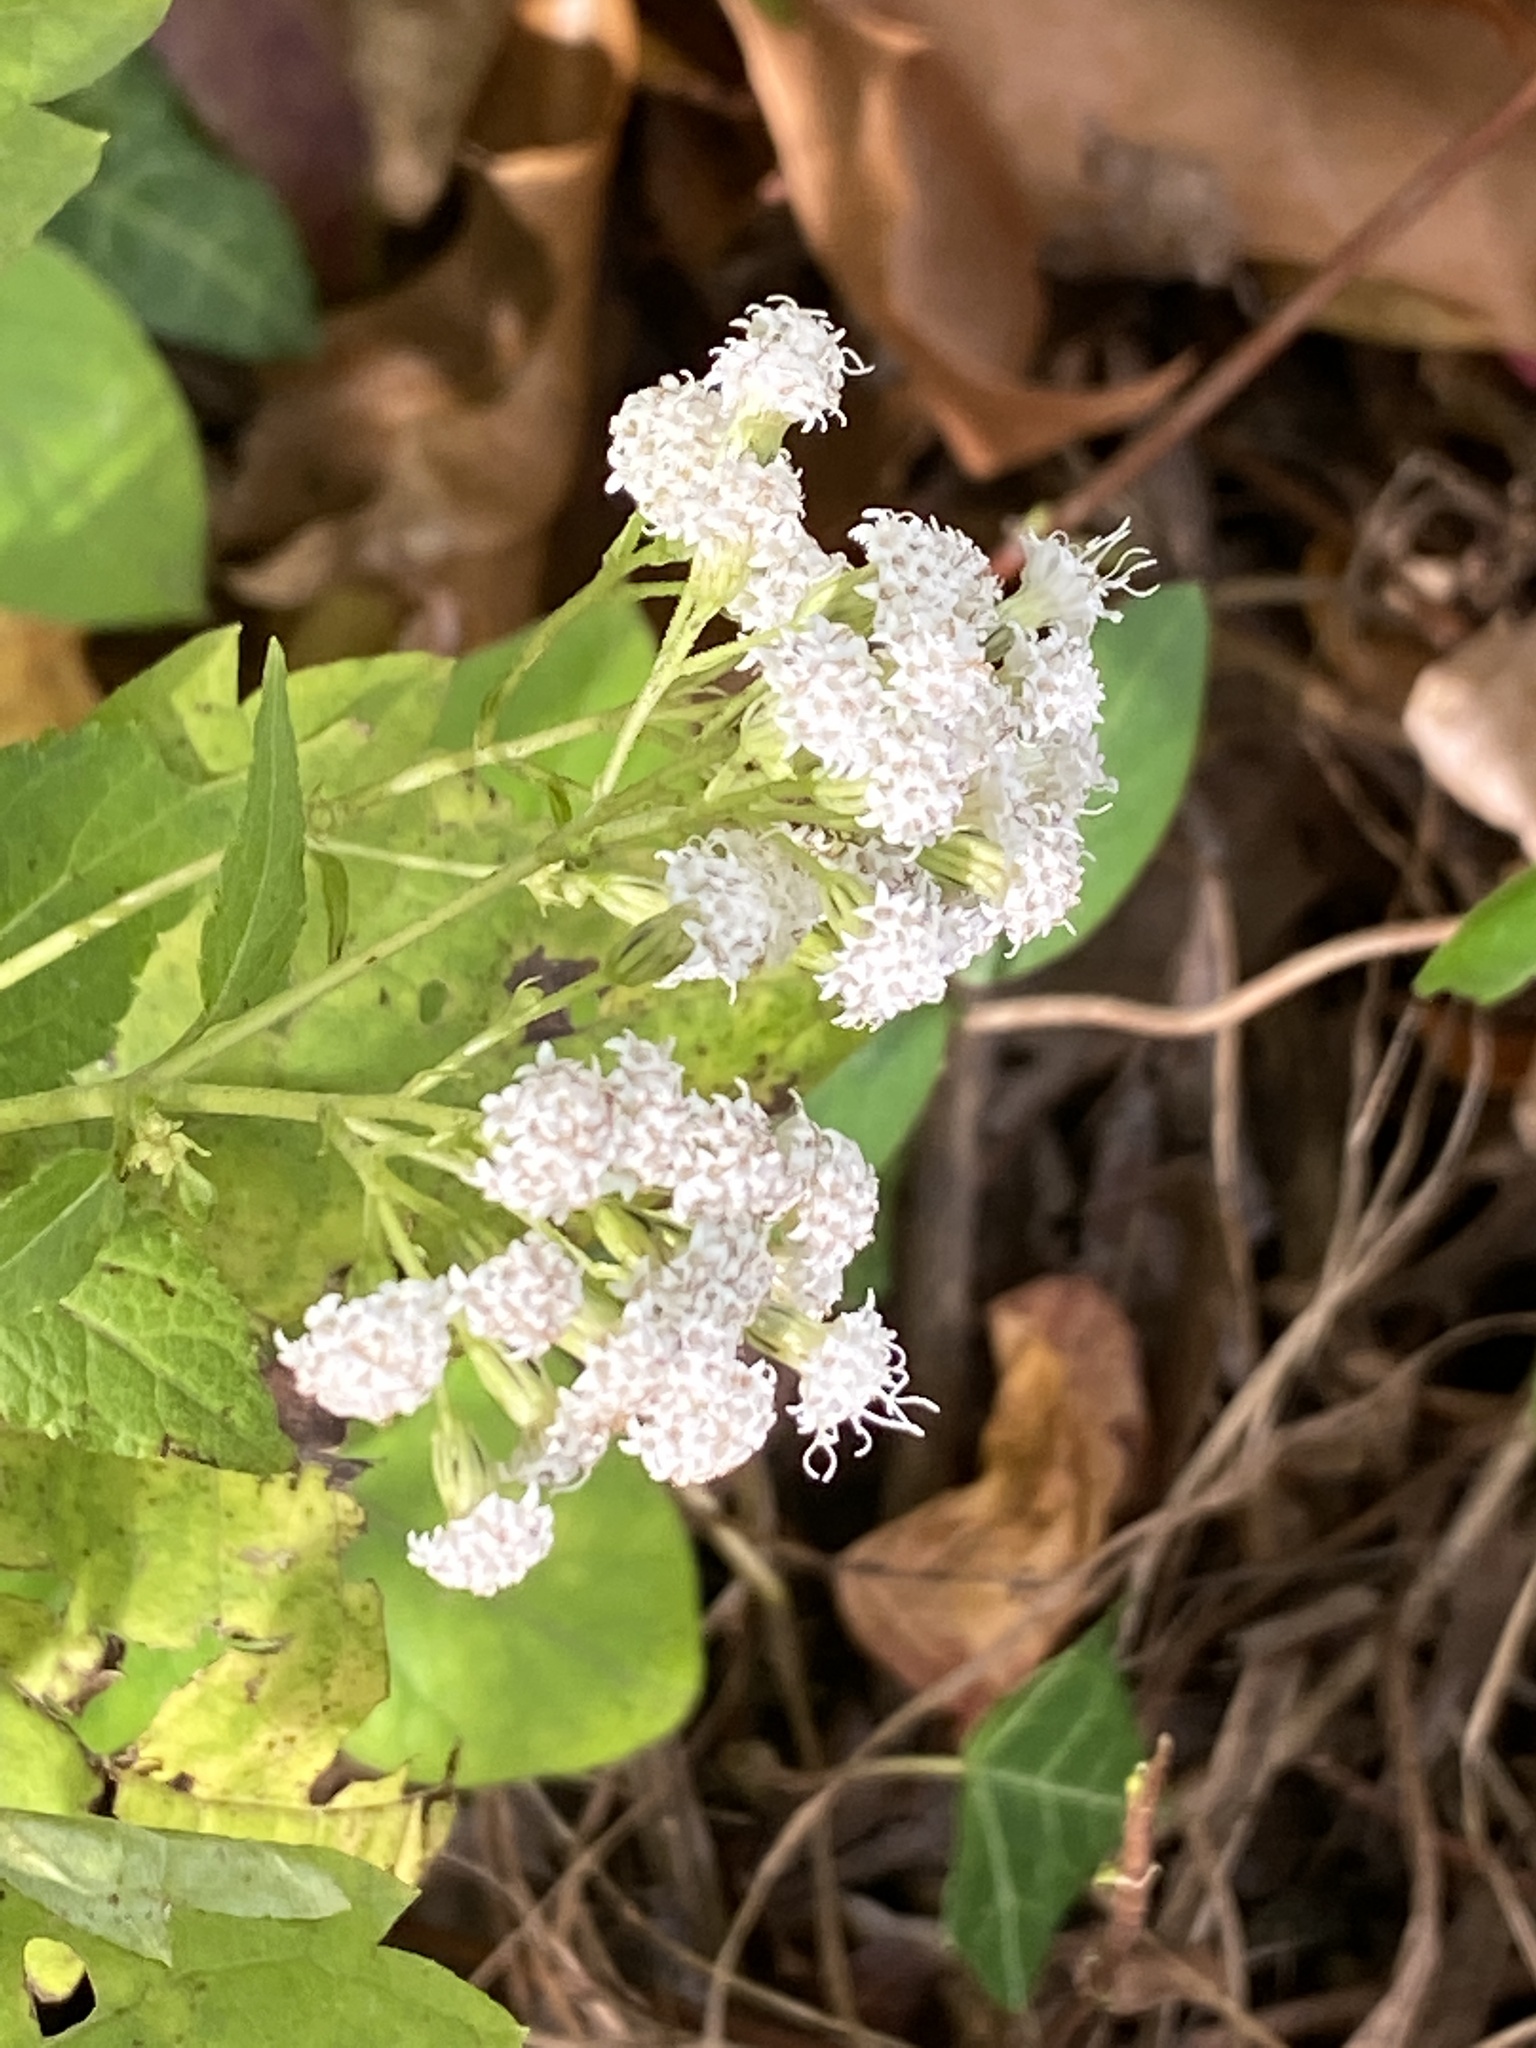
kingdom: Plantae
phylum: Tracheophyta
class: Magnoliopsida
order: Asterales
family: Asteraceae
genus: Ageratina
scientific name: Ageratina altissima
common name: White snakeroot
